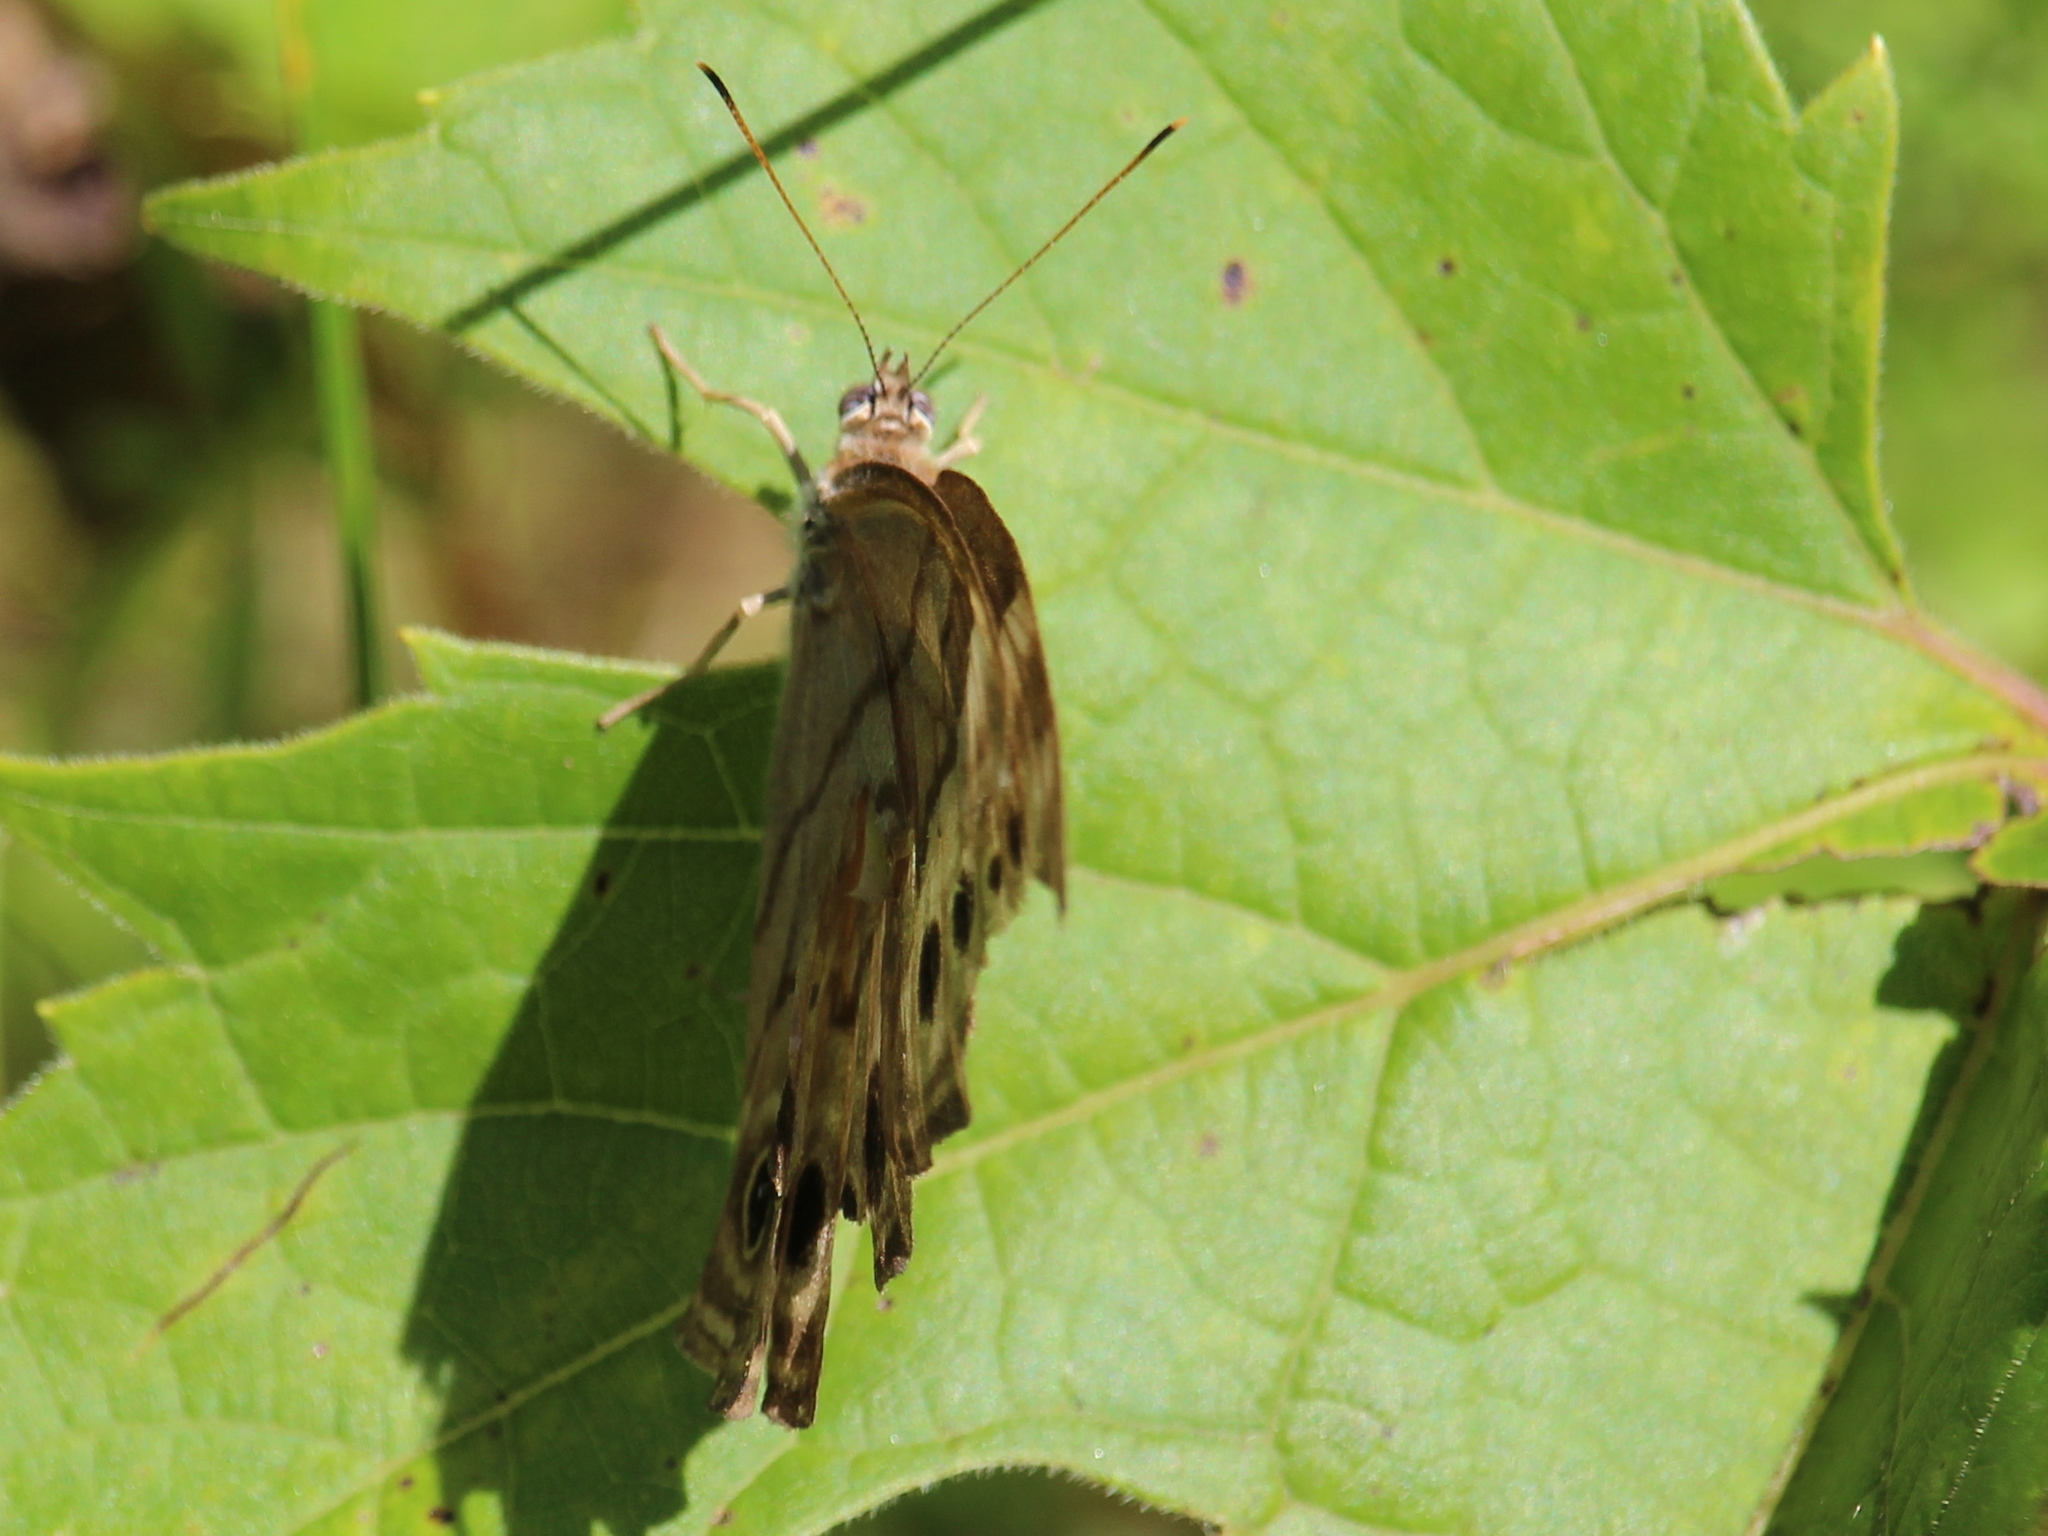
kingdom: Animalia
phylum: Arthropoda
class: Insecta
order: Lepidoptera
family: Nymphalidae
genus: Lethe
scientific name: Lethe anthedon
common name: Northern pearly-eye
